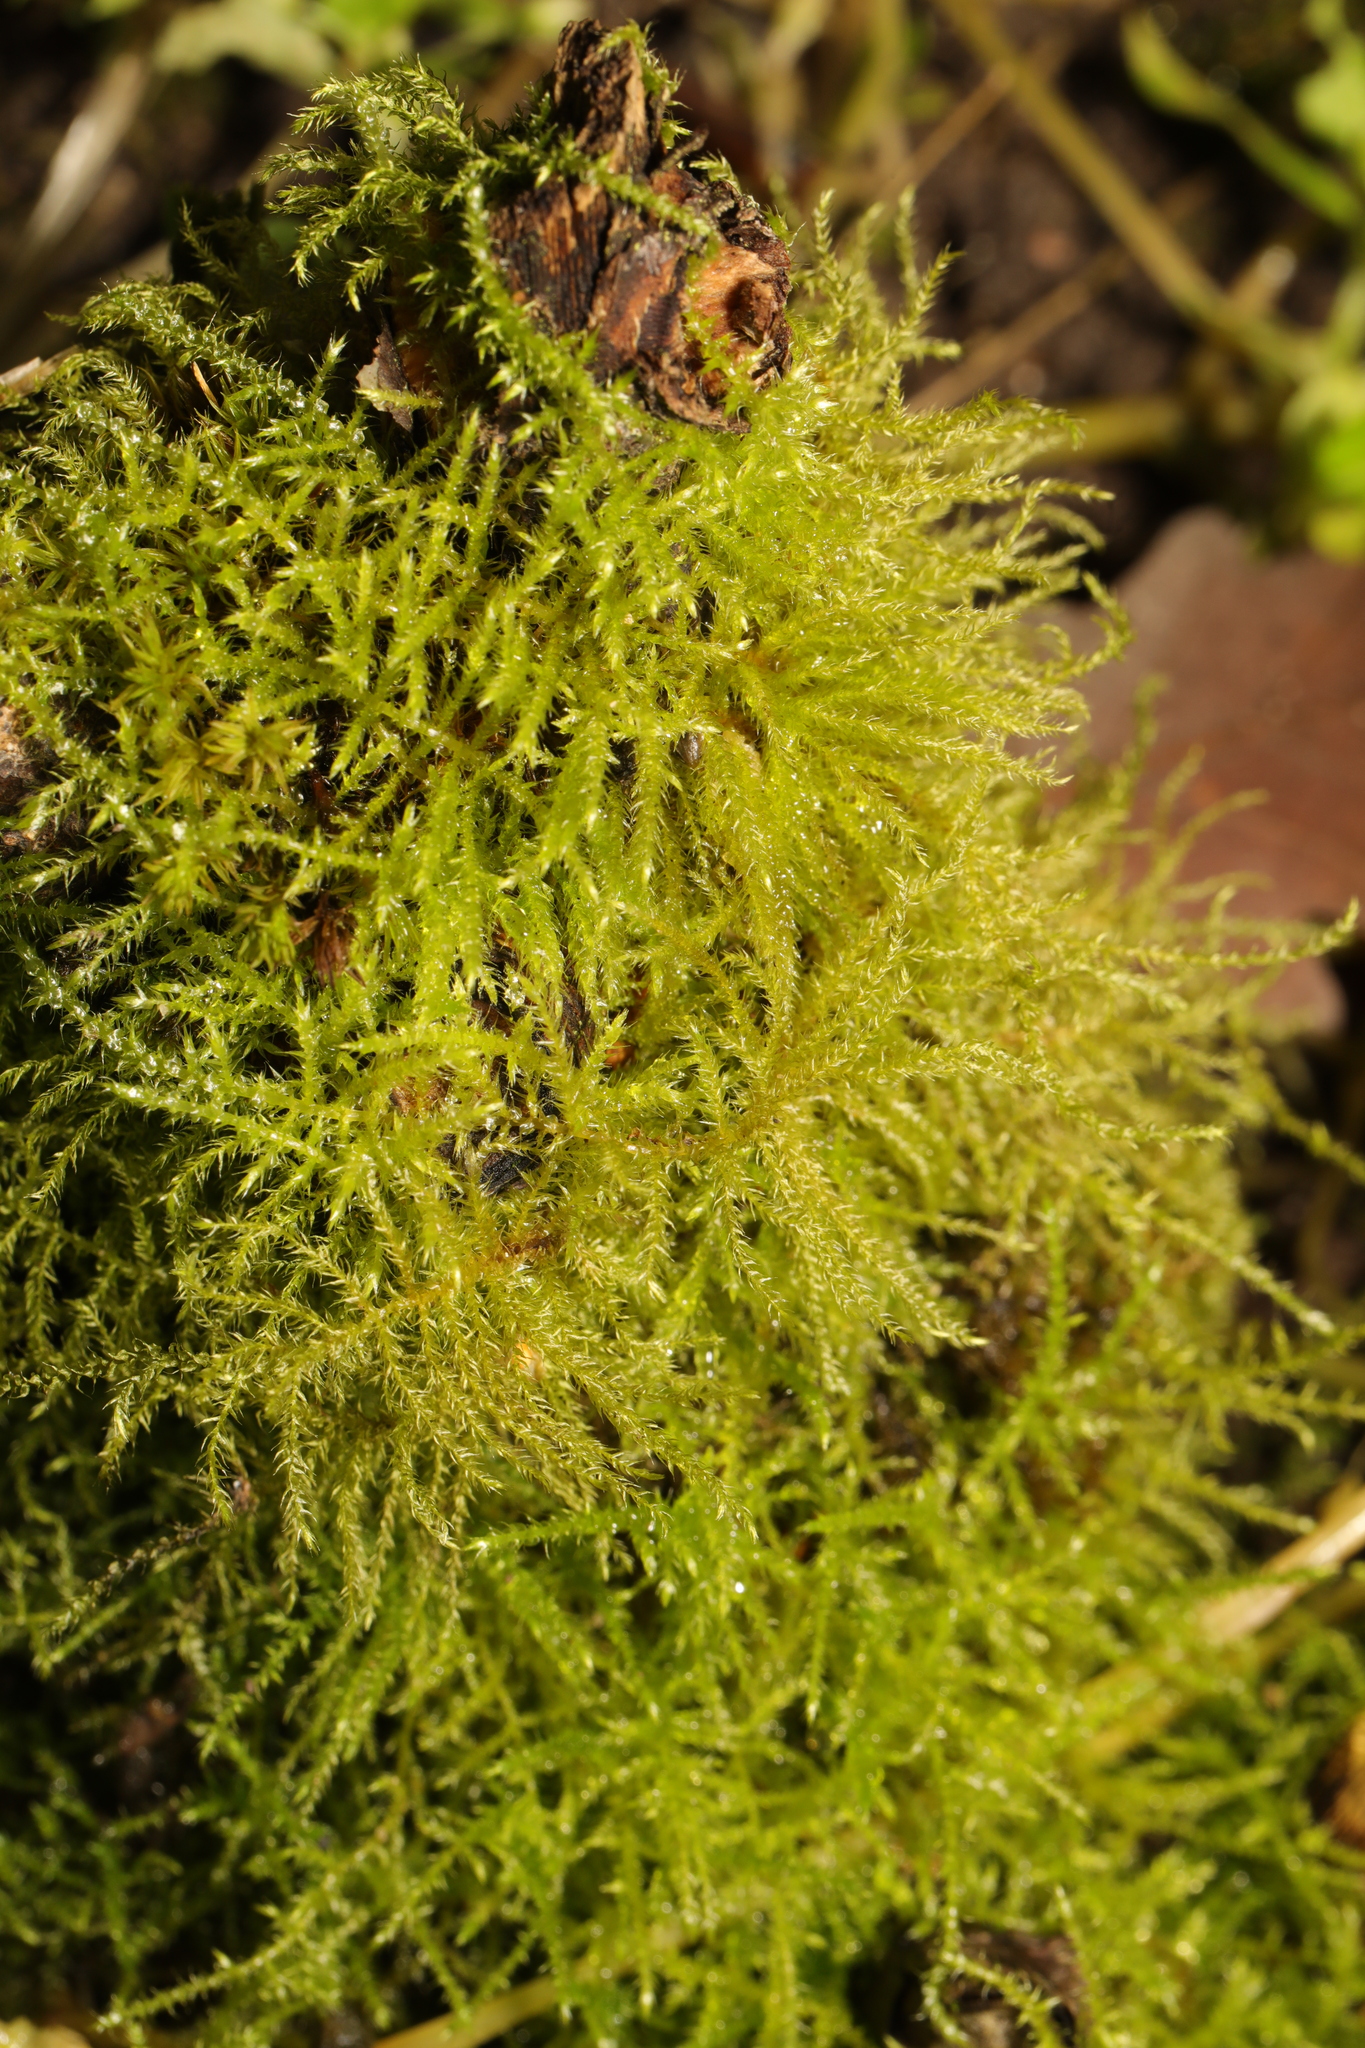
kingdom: Plantae
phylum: Bryophyta
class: Bryopsida
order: Hypnales
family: Brachytheciaceae
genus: Kindbergia
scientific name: Kindbergia praelonga
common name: Slender beaked moss
